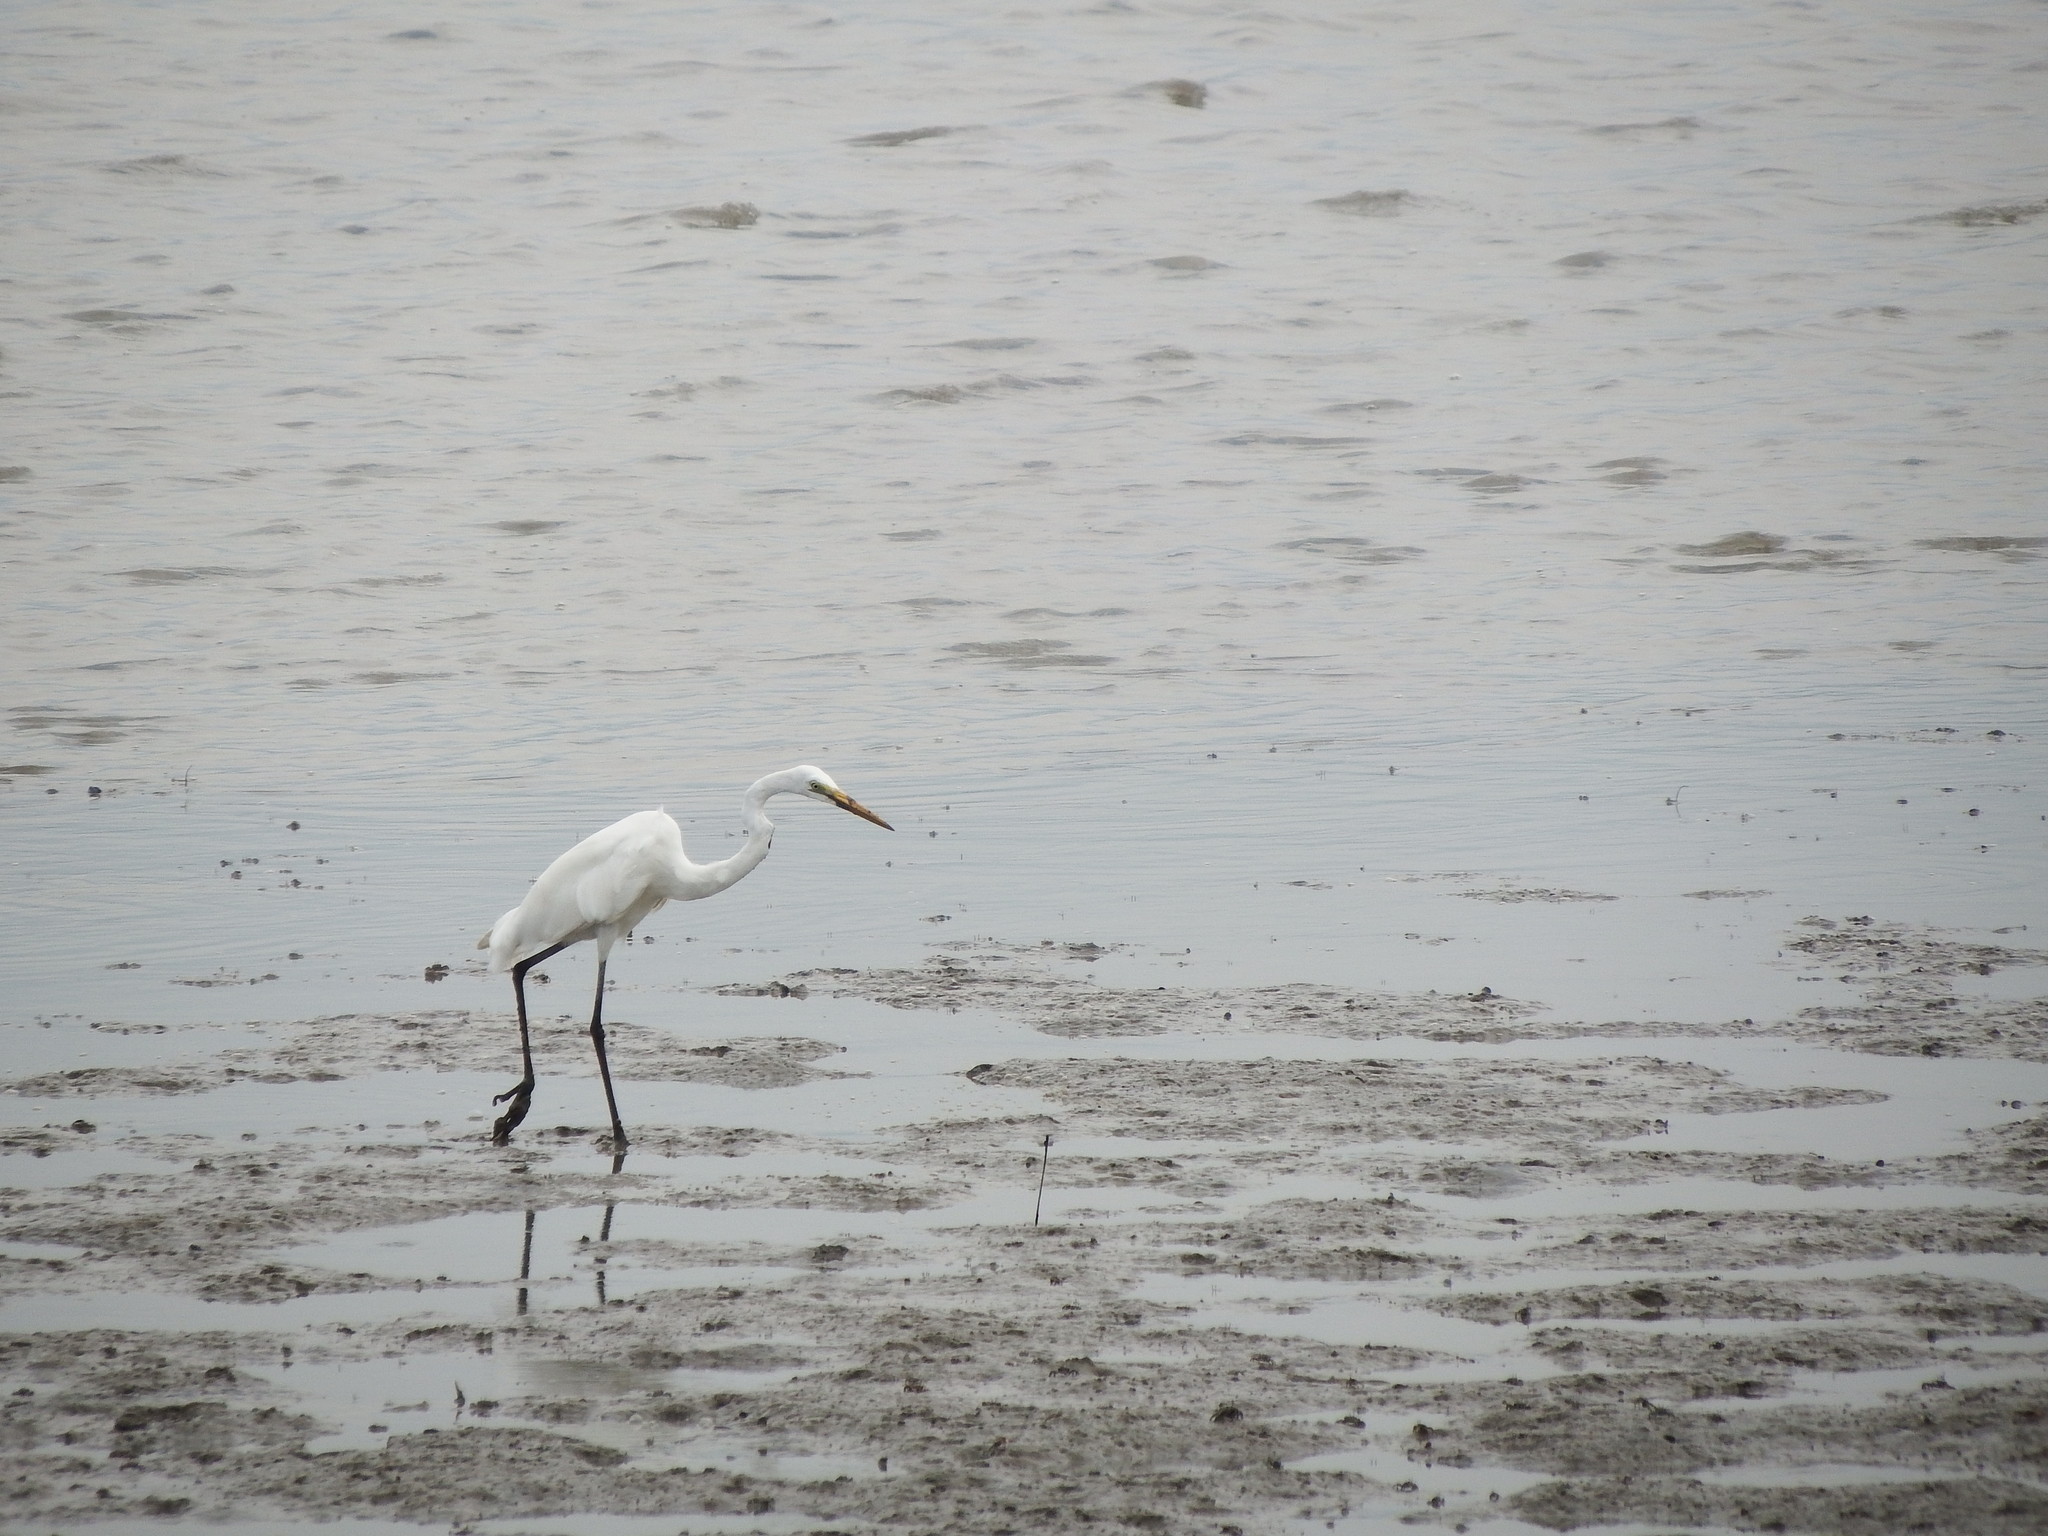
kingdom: Animalia
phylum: Chordata
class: Aves
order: Pelecaniformes
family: Ardeidae
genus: Ardea
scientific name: Ardea alba
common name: Great egret
